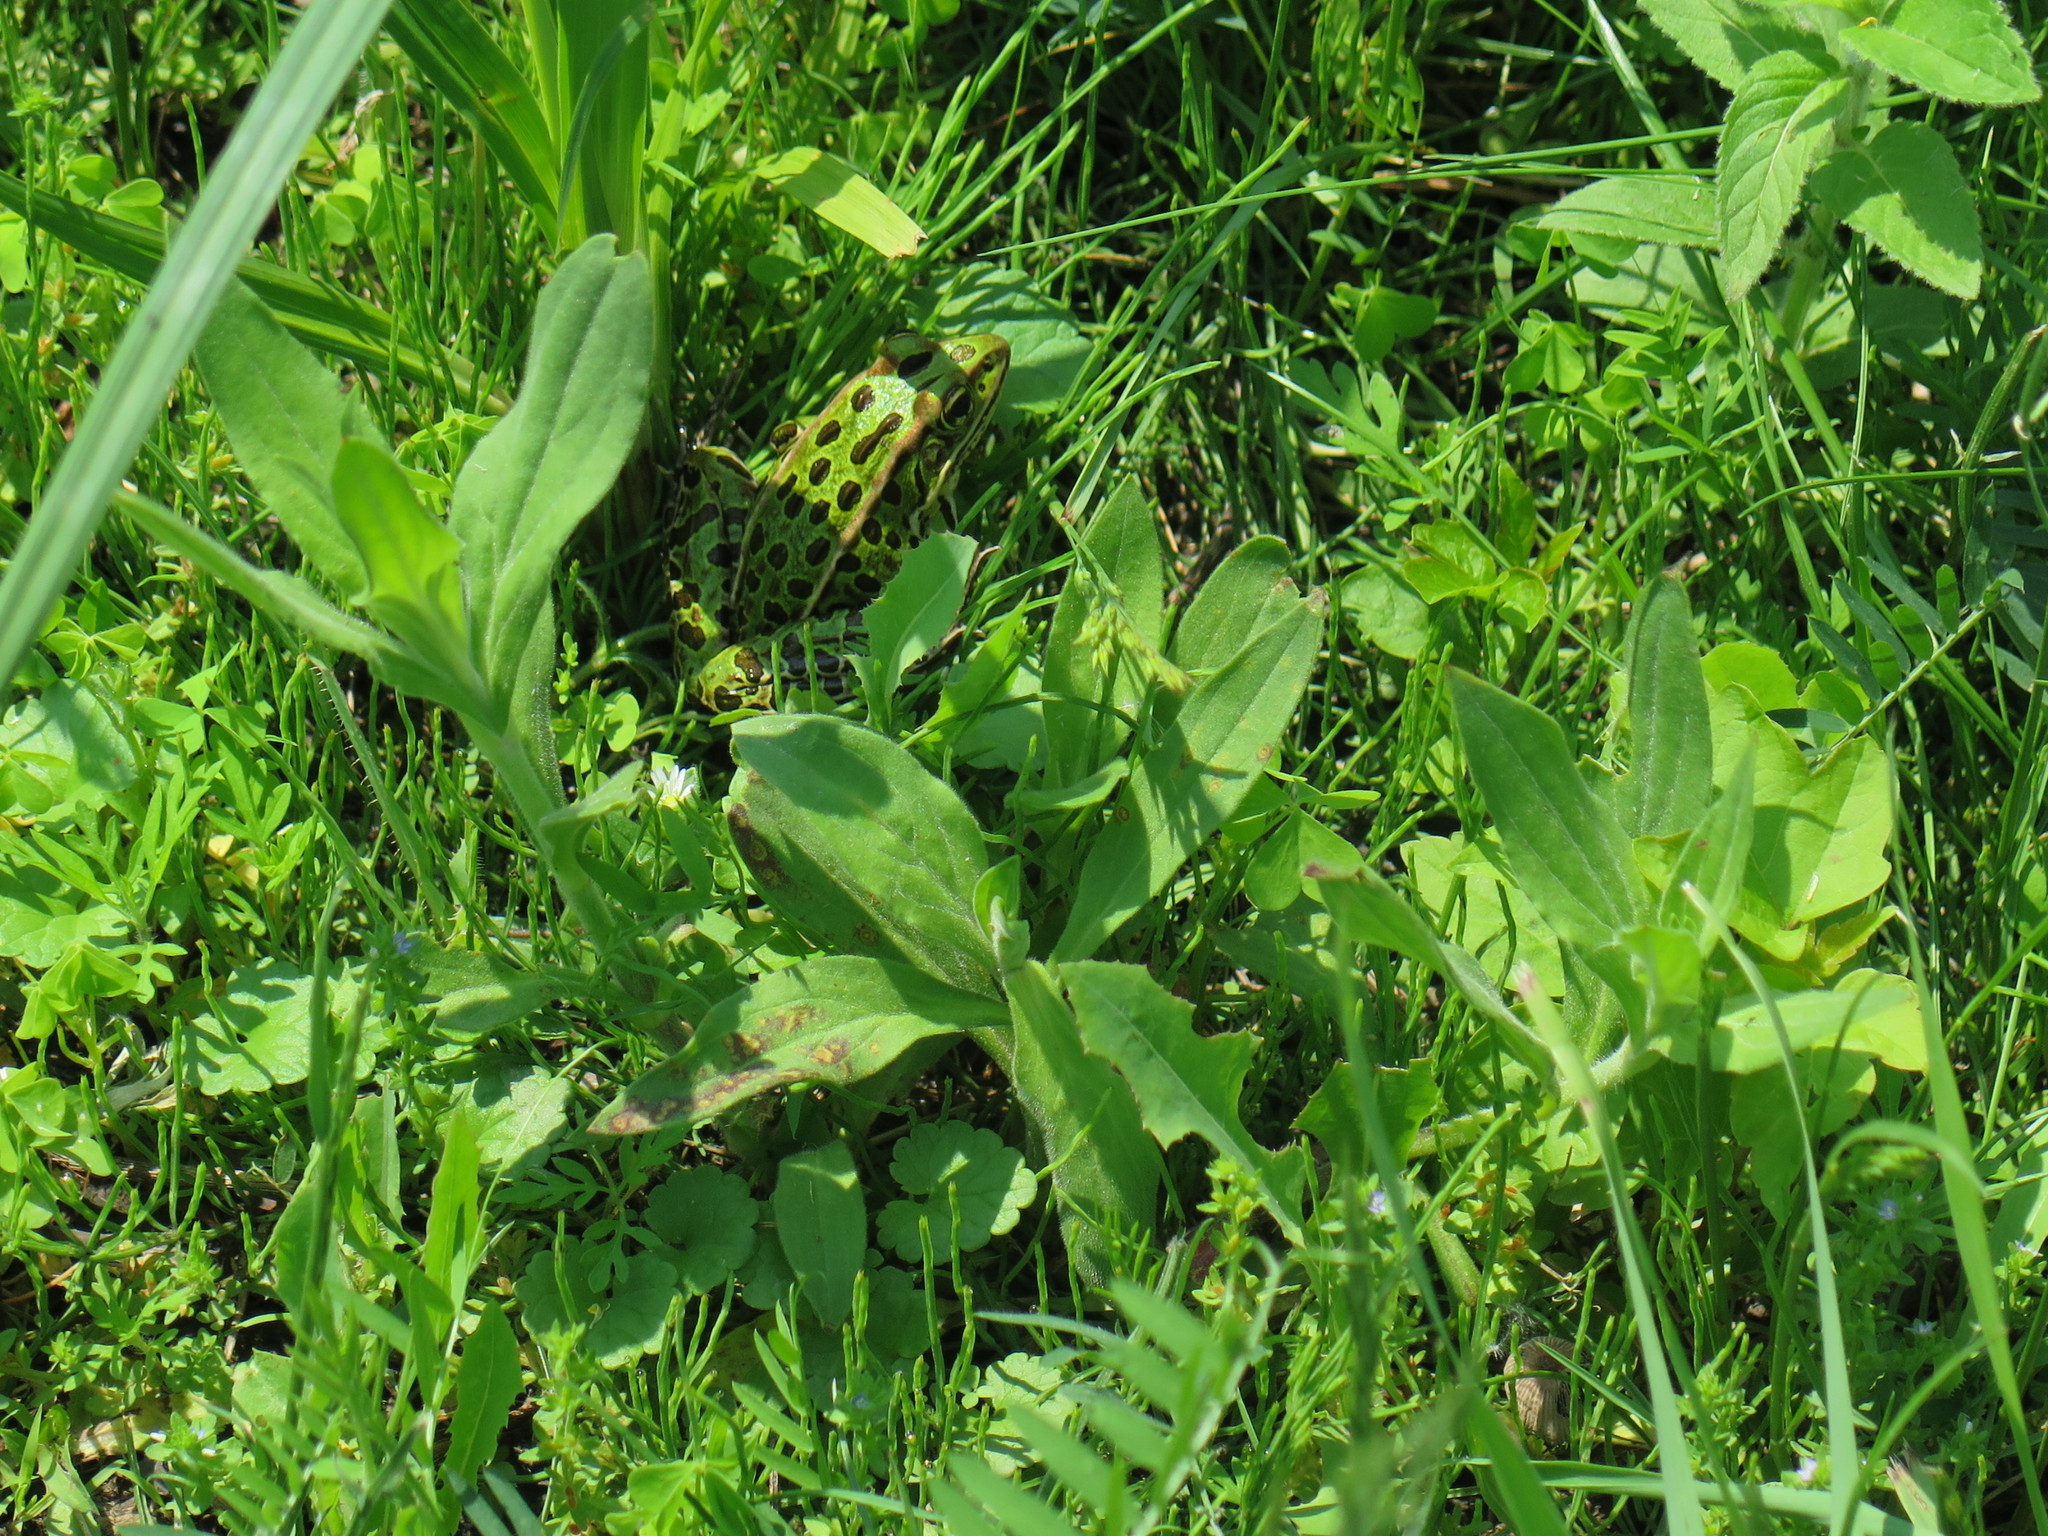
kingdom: Animalia
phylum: Chordata
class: Amphibia
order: Anura
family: Ranidae
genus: Lithobates
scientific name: Lithobates pipiens
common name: Northern leopard frog
